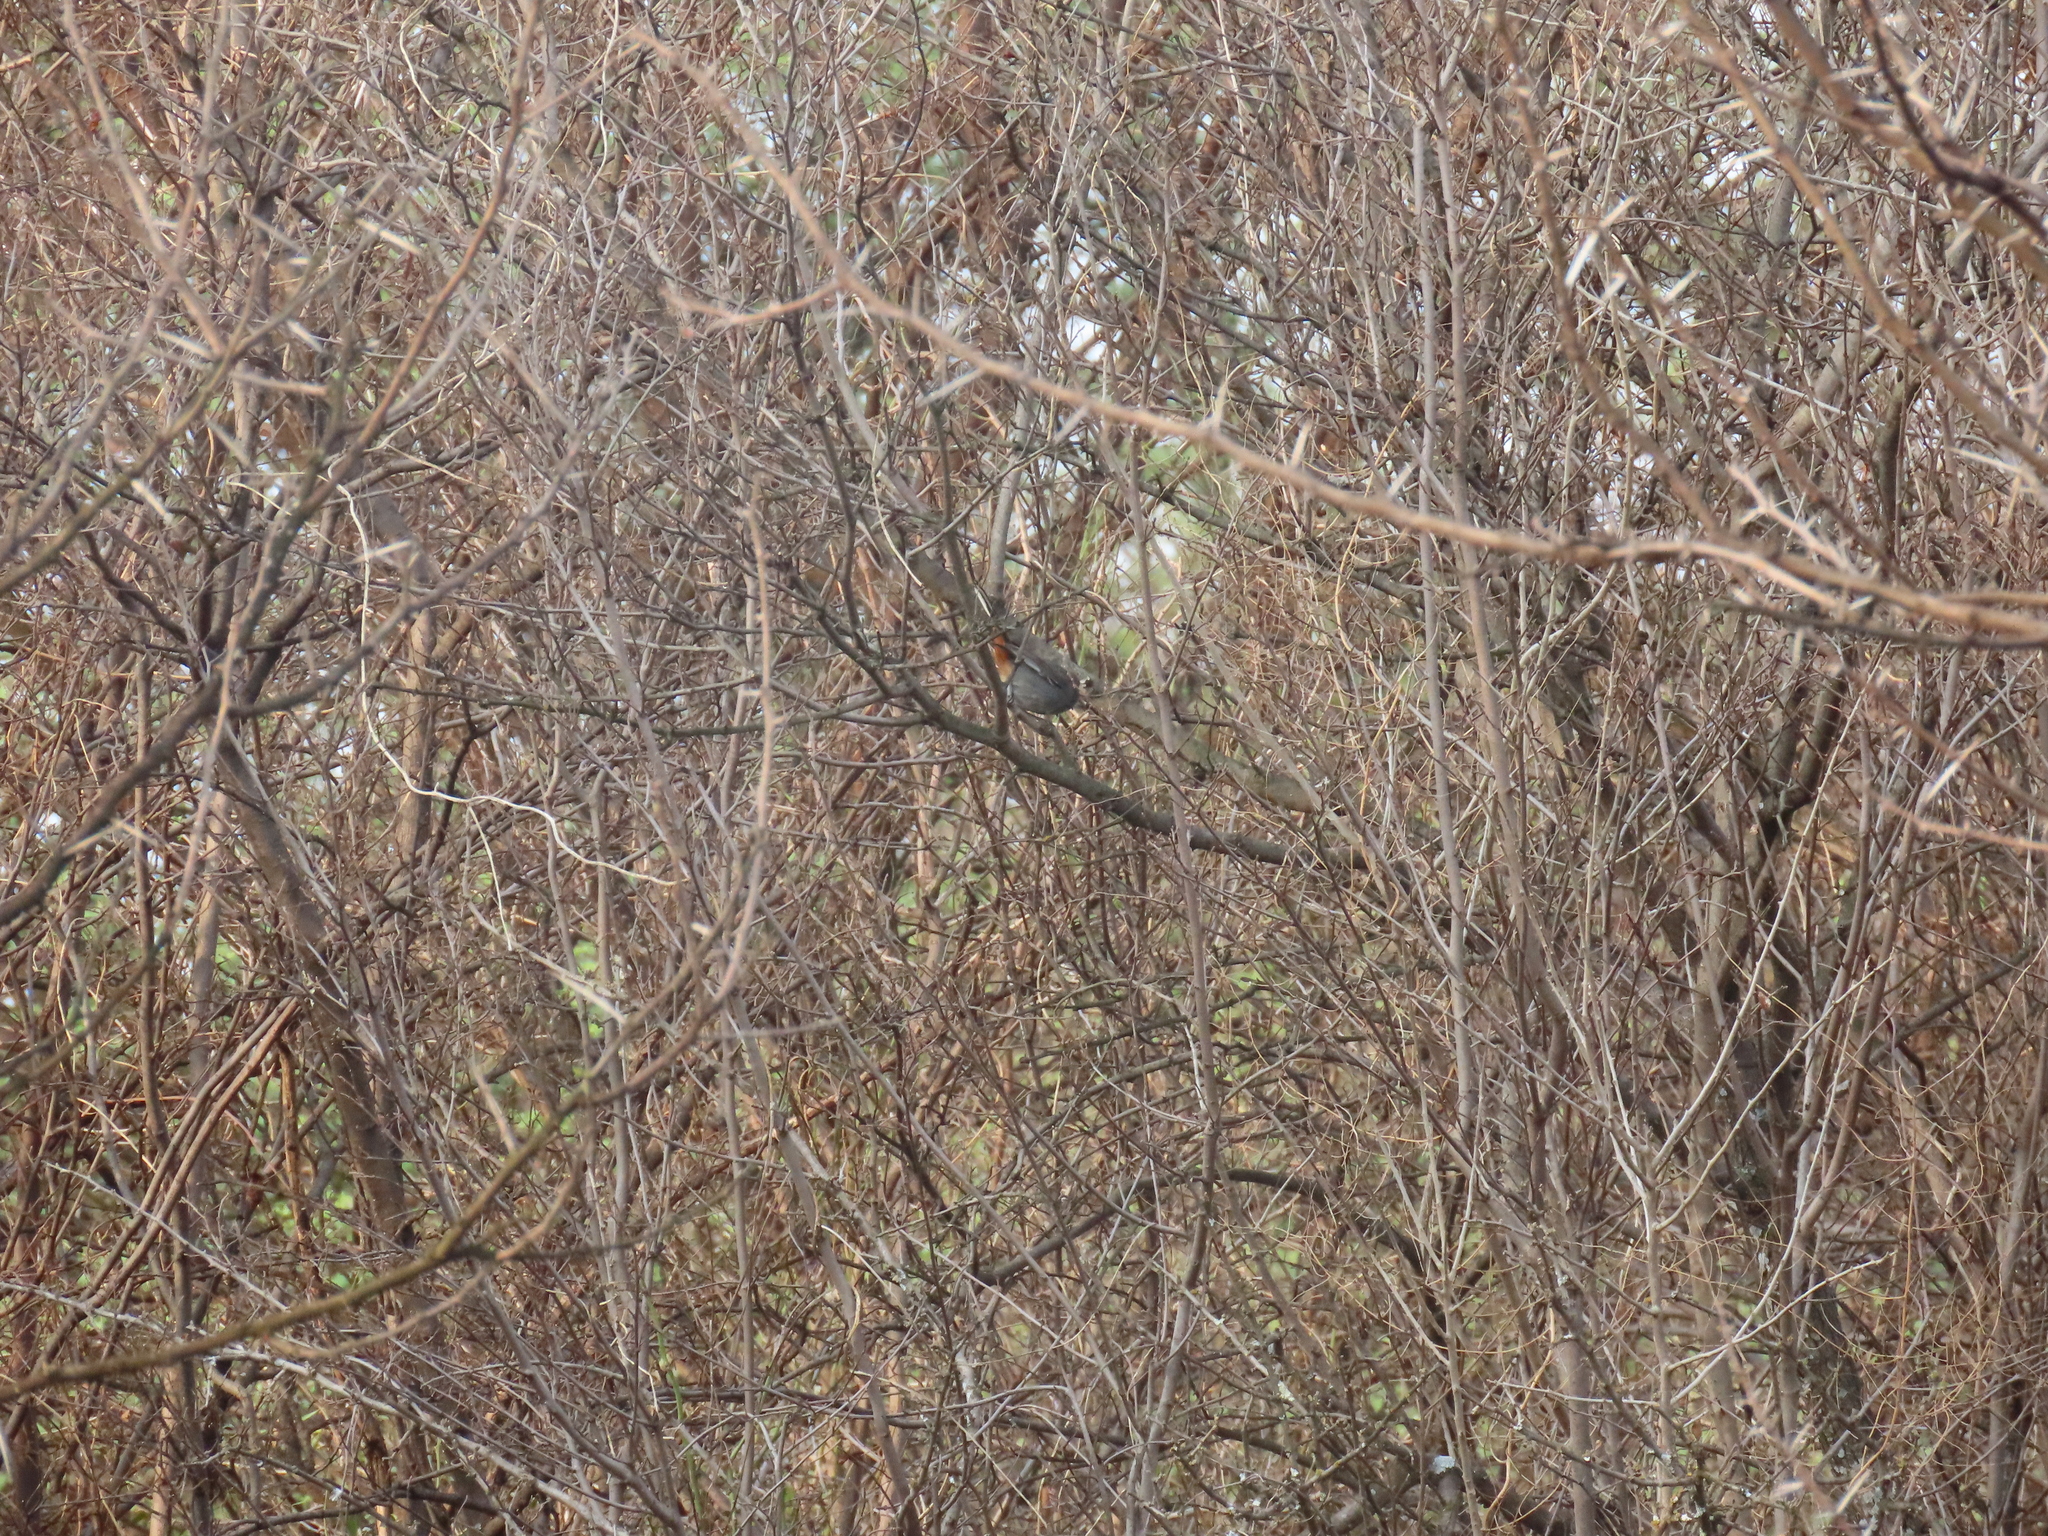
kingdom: Animalia
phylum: Chordata
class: Aves
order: Passeriformes
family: Sylviidae
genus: Curruca
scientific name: Curruca subcoerulea
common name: Chestnut-vented warbler
